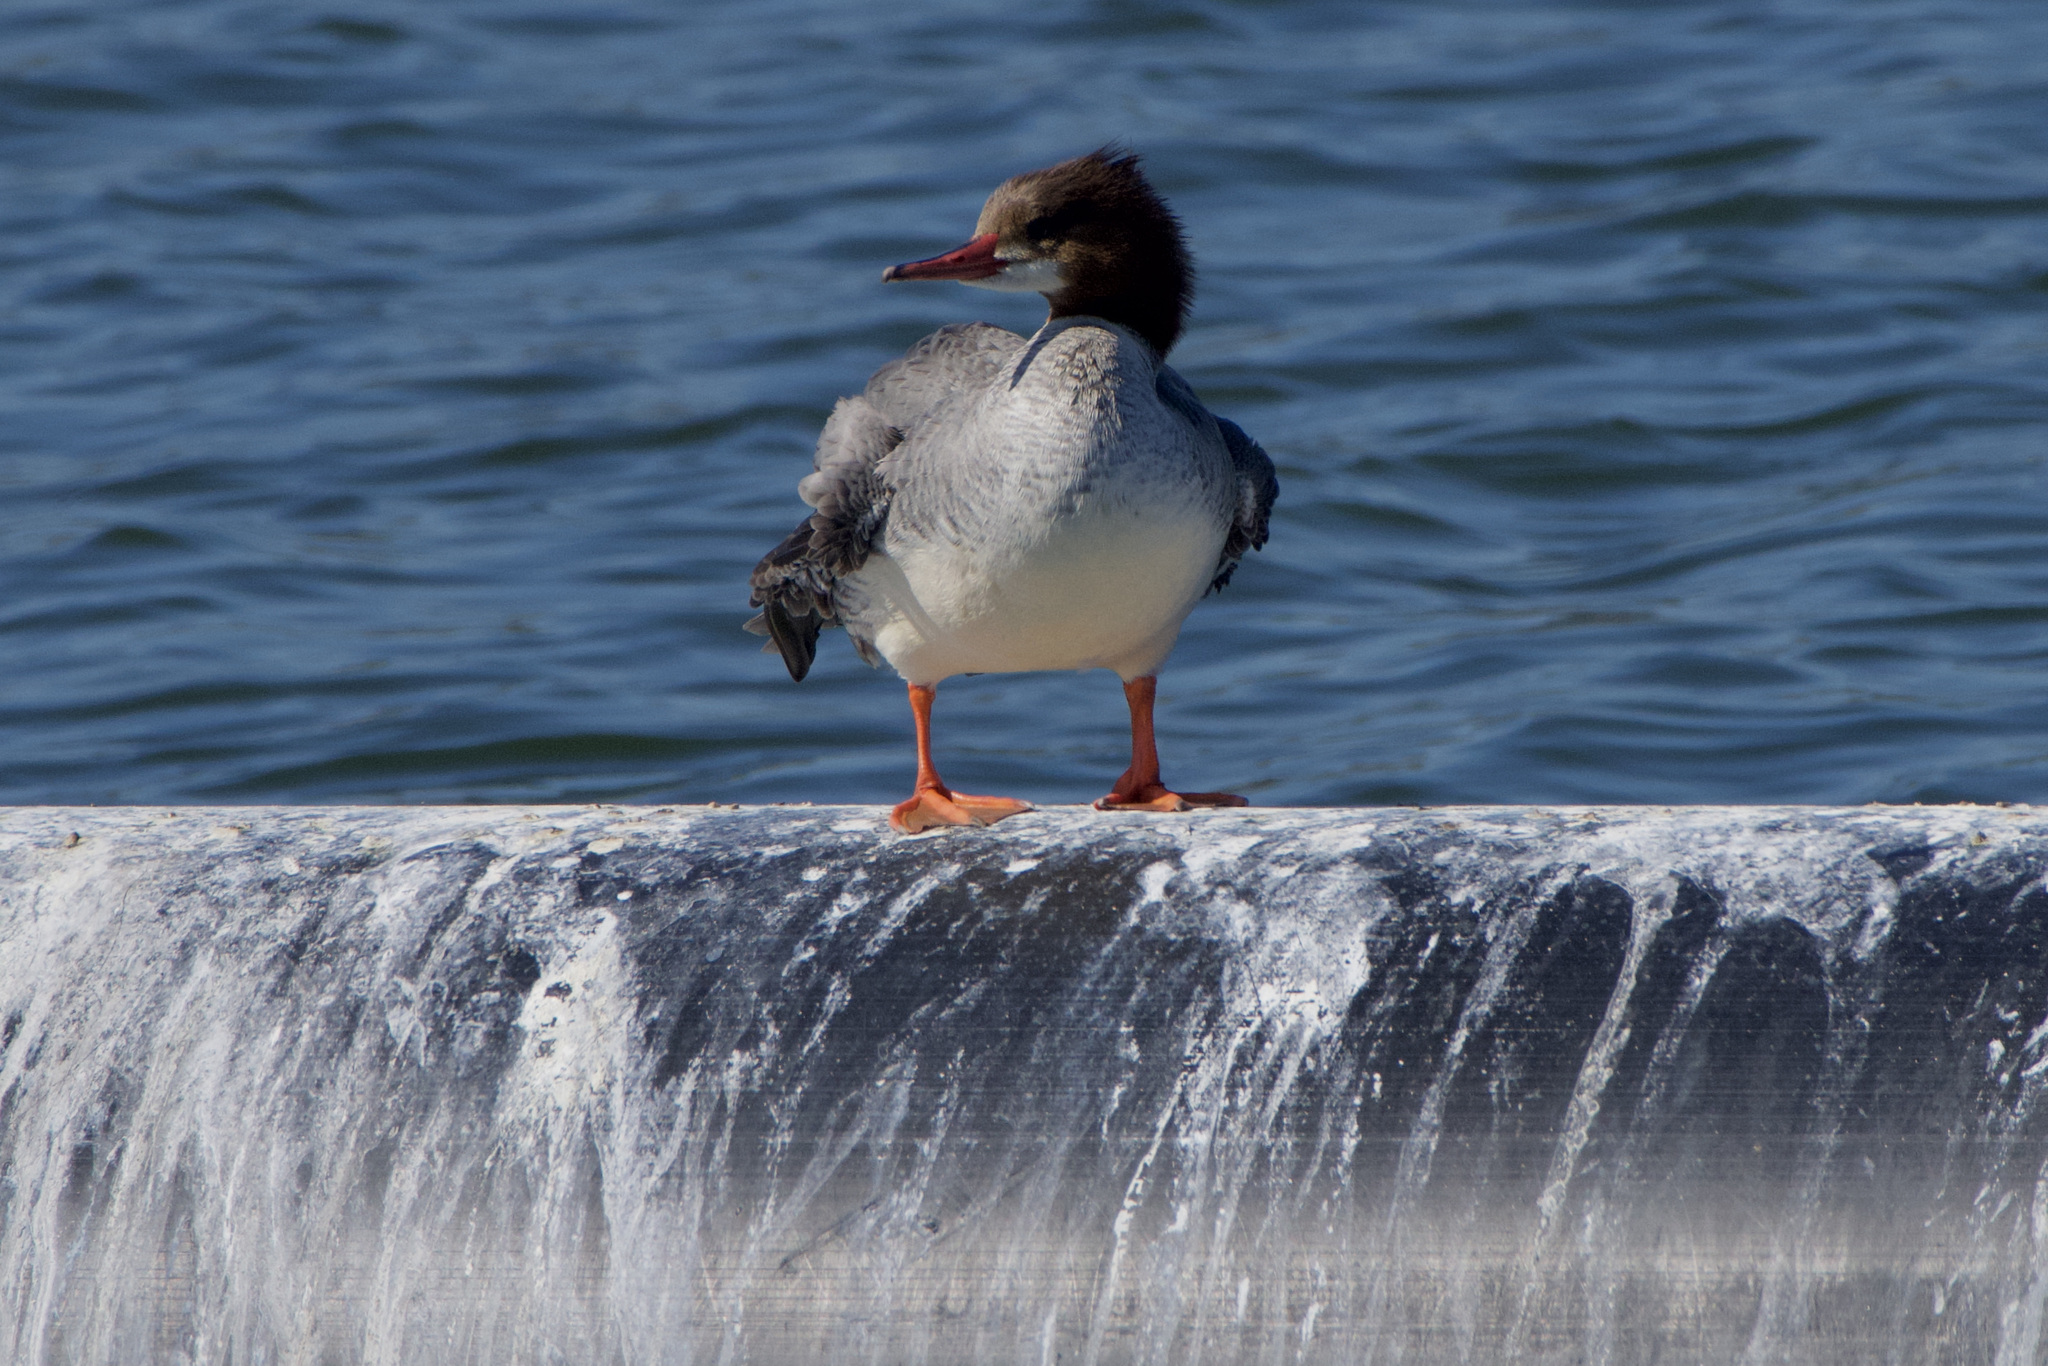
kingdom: Animalia
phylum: Chordata
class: Aves
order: Anseriformes
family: Anatidae
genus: Mergus
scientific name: Mergus merganser
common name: Common merganser
